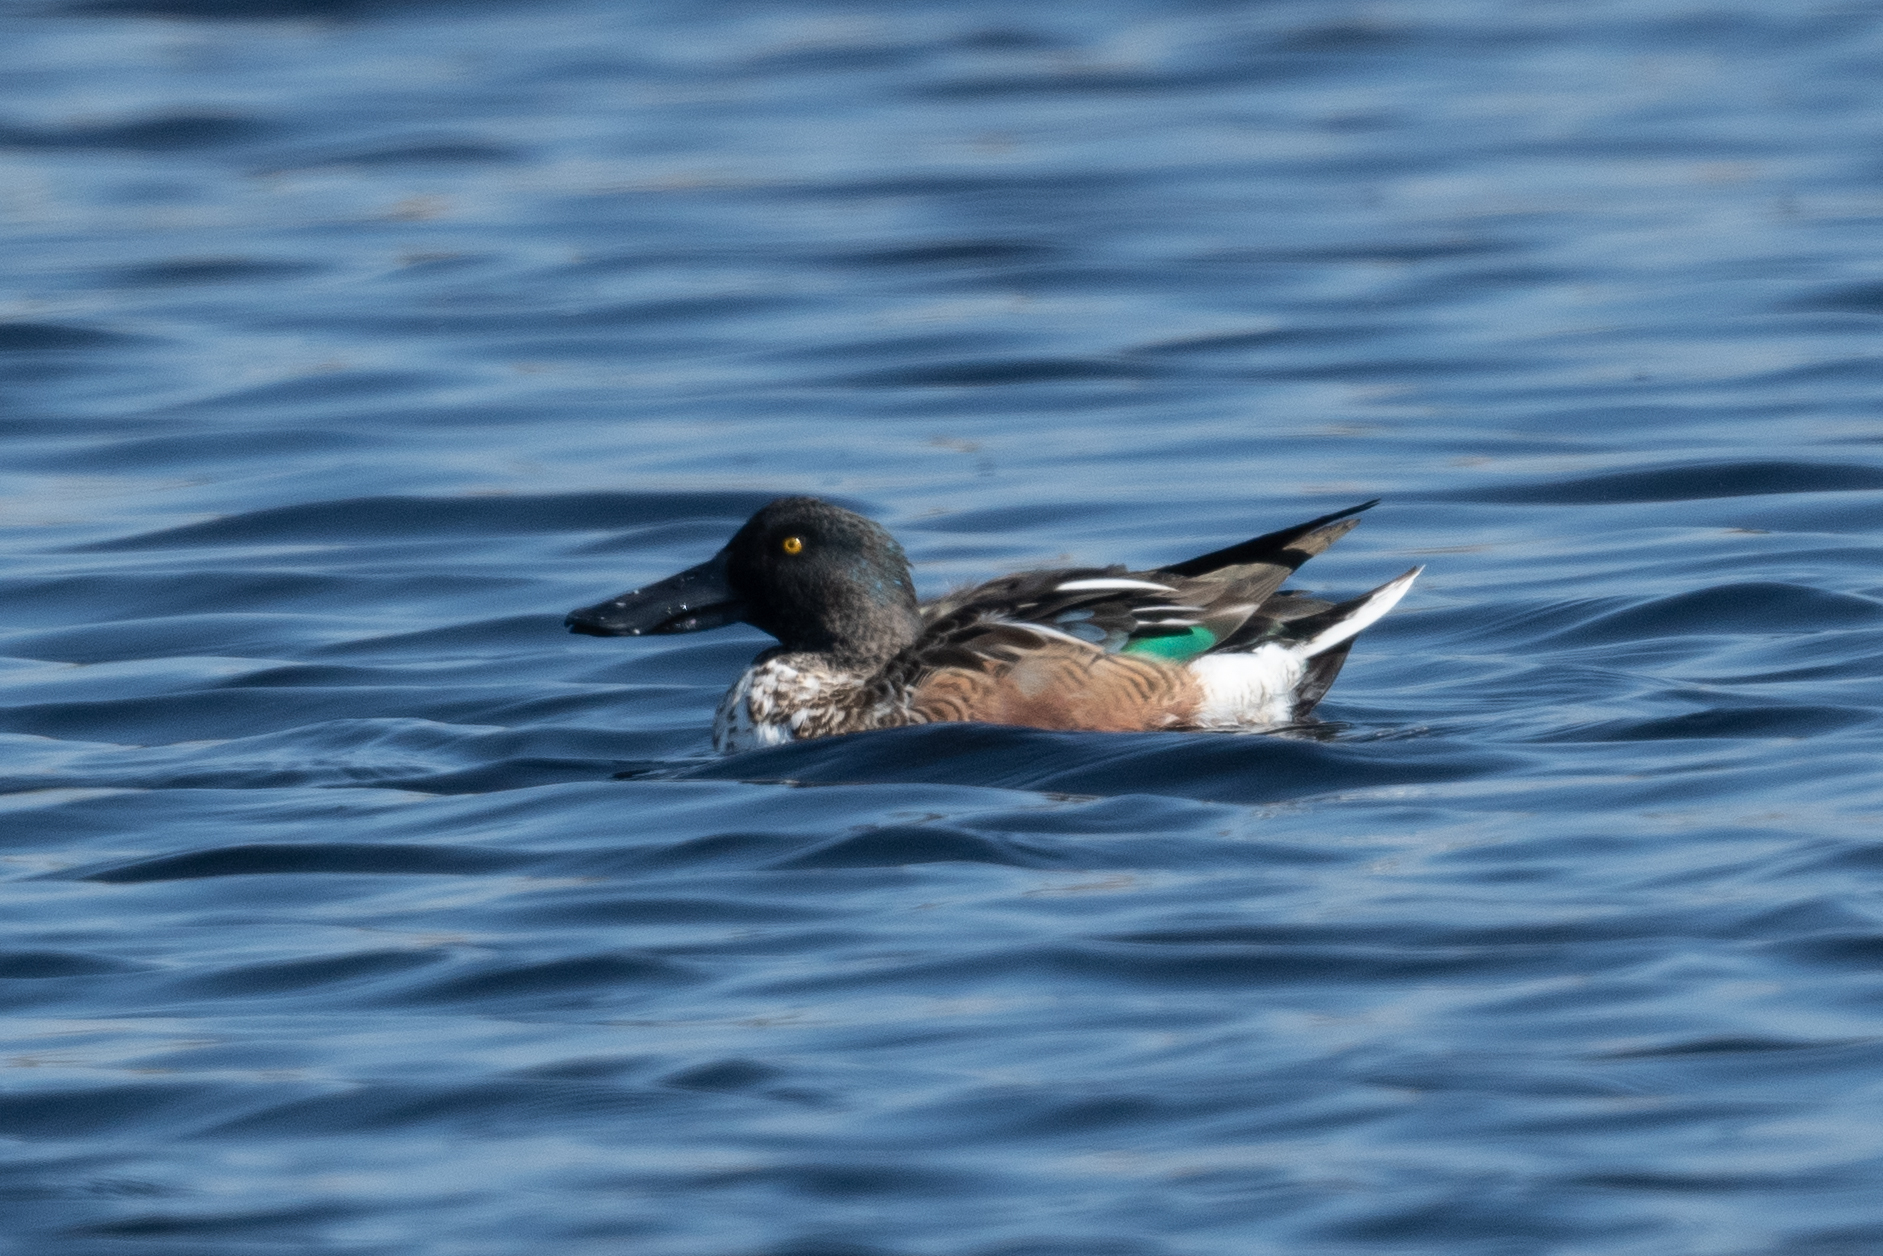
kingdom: Animalia
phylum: Chordata
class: Aves
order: Anseriformes
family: Anatidae
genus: Spatula
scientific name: Spatula clypeata
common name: Northern shoveler
